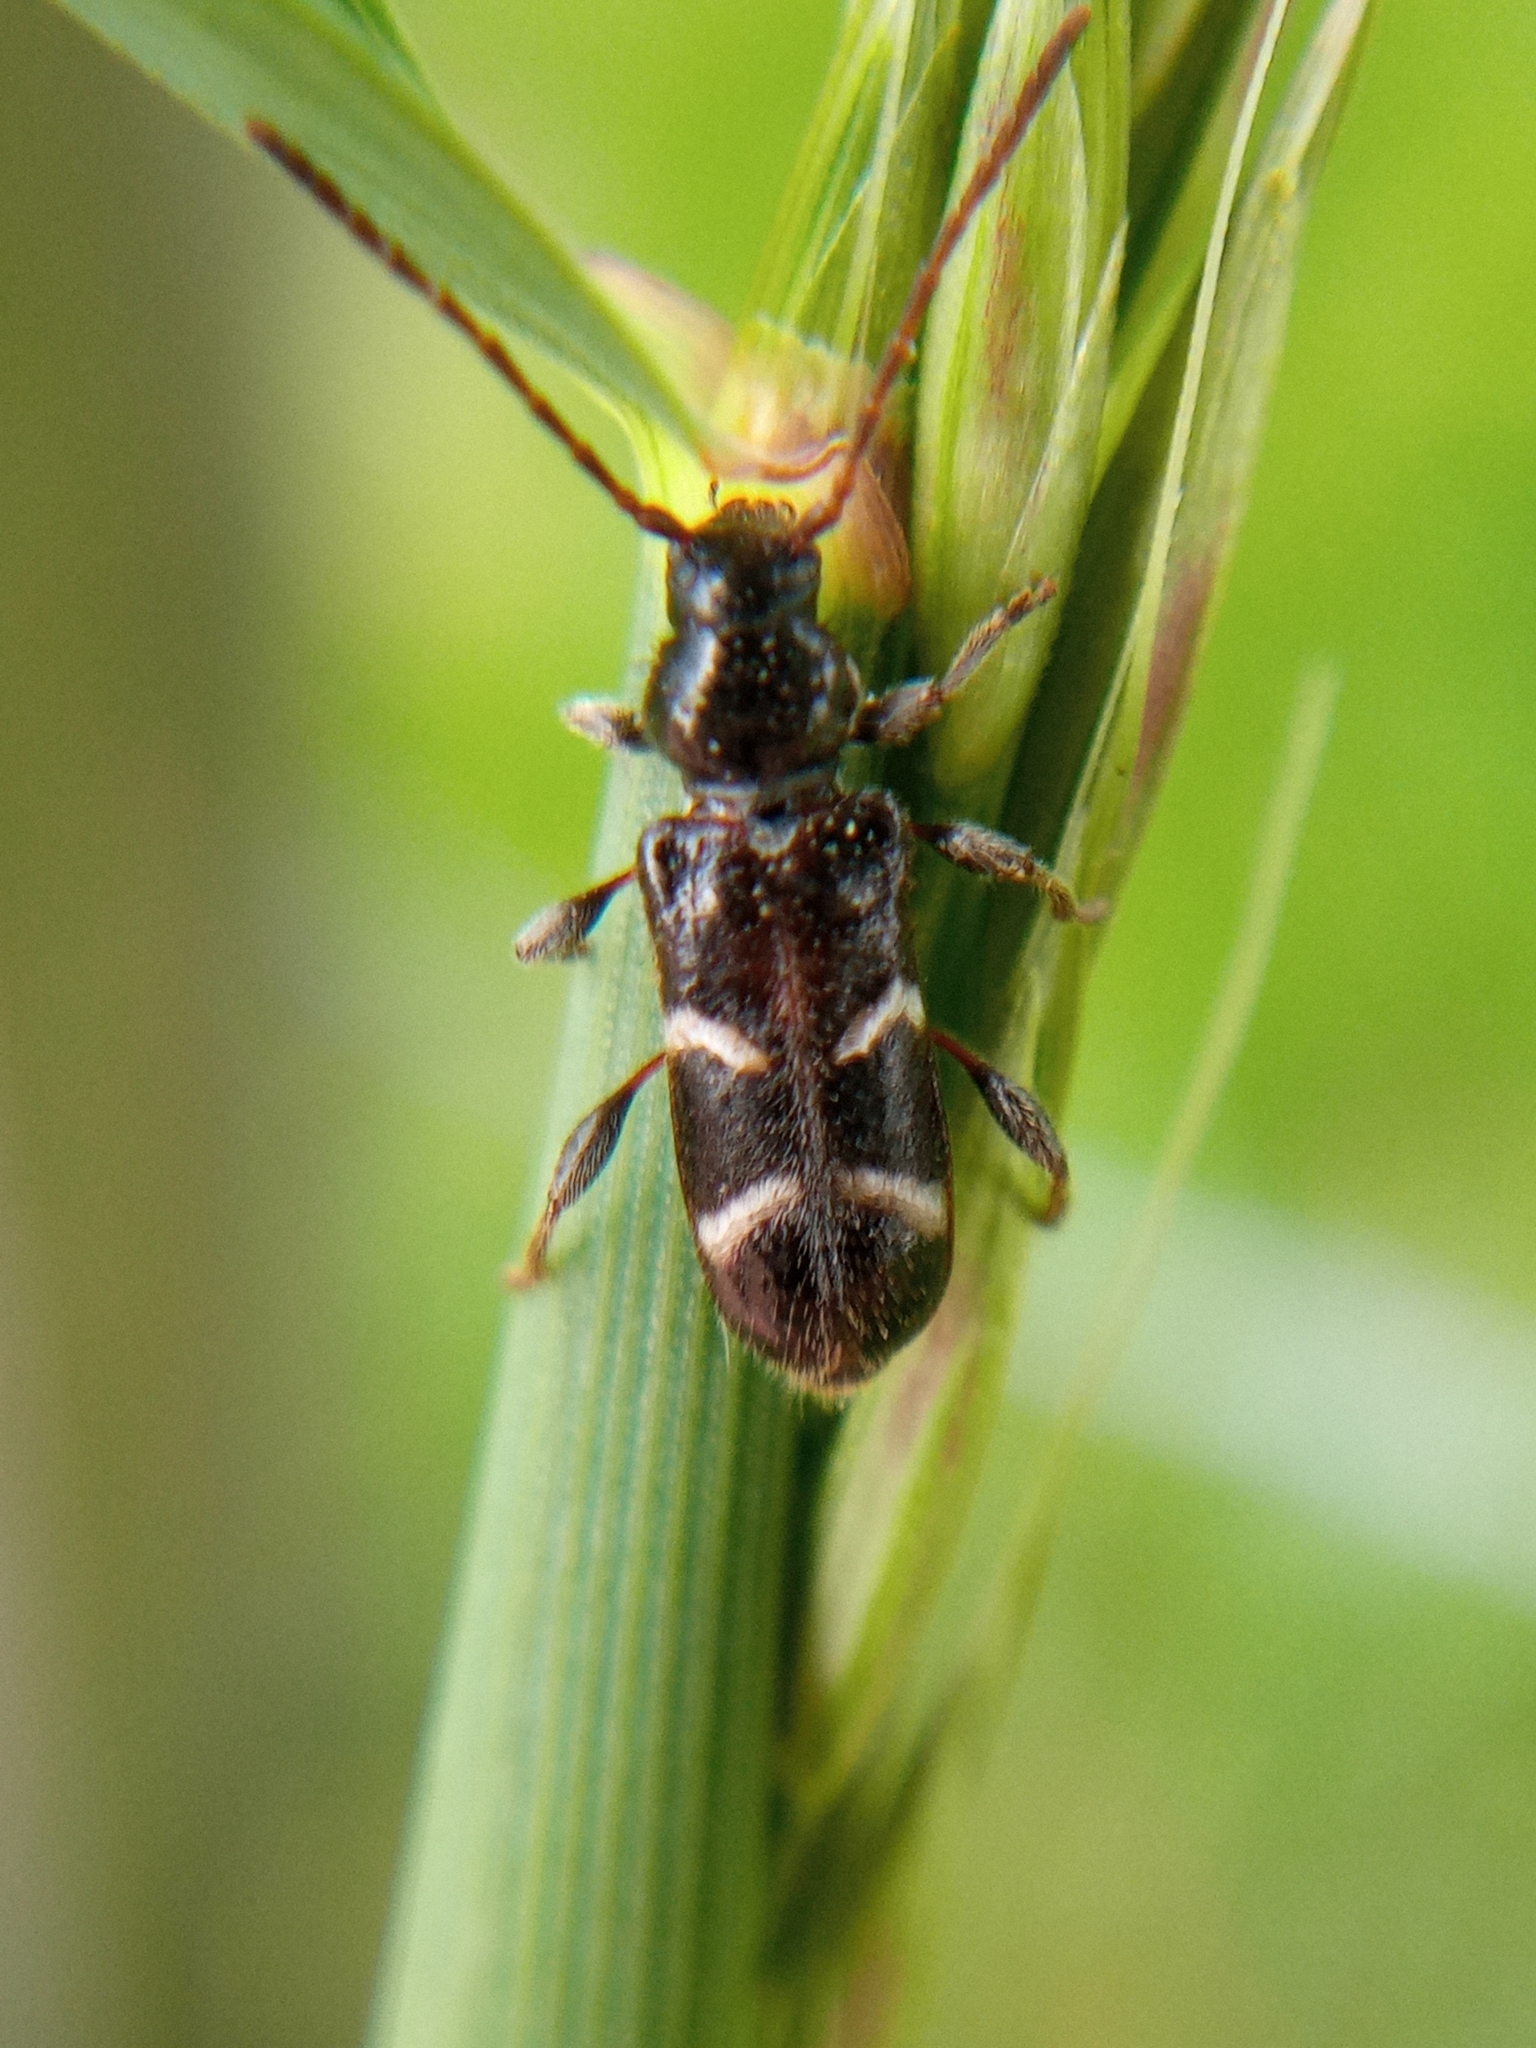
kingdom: Animalia
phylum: Arthropoda
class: Insecta
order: Coleoptera
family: Cerambycidae
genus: Poecilium
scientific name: Poecilium alni
